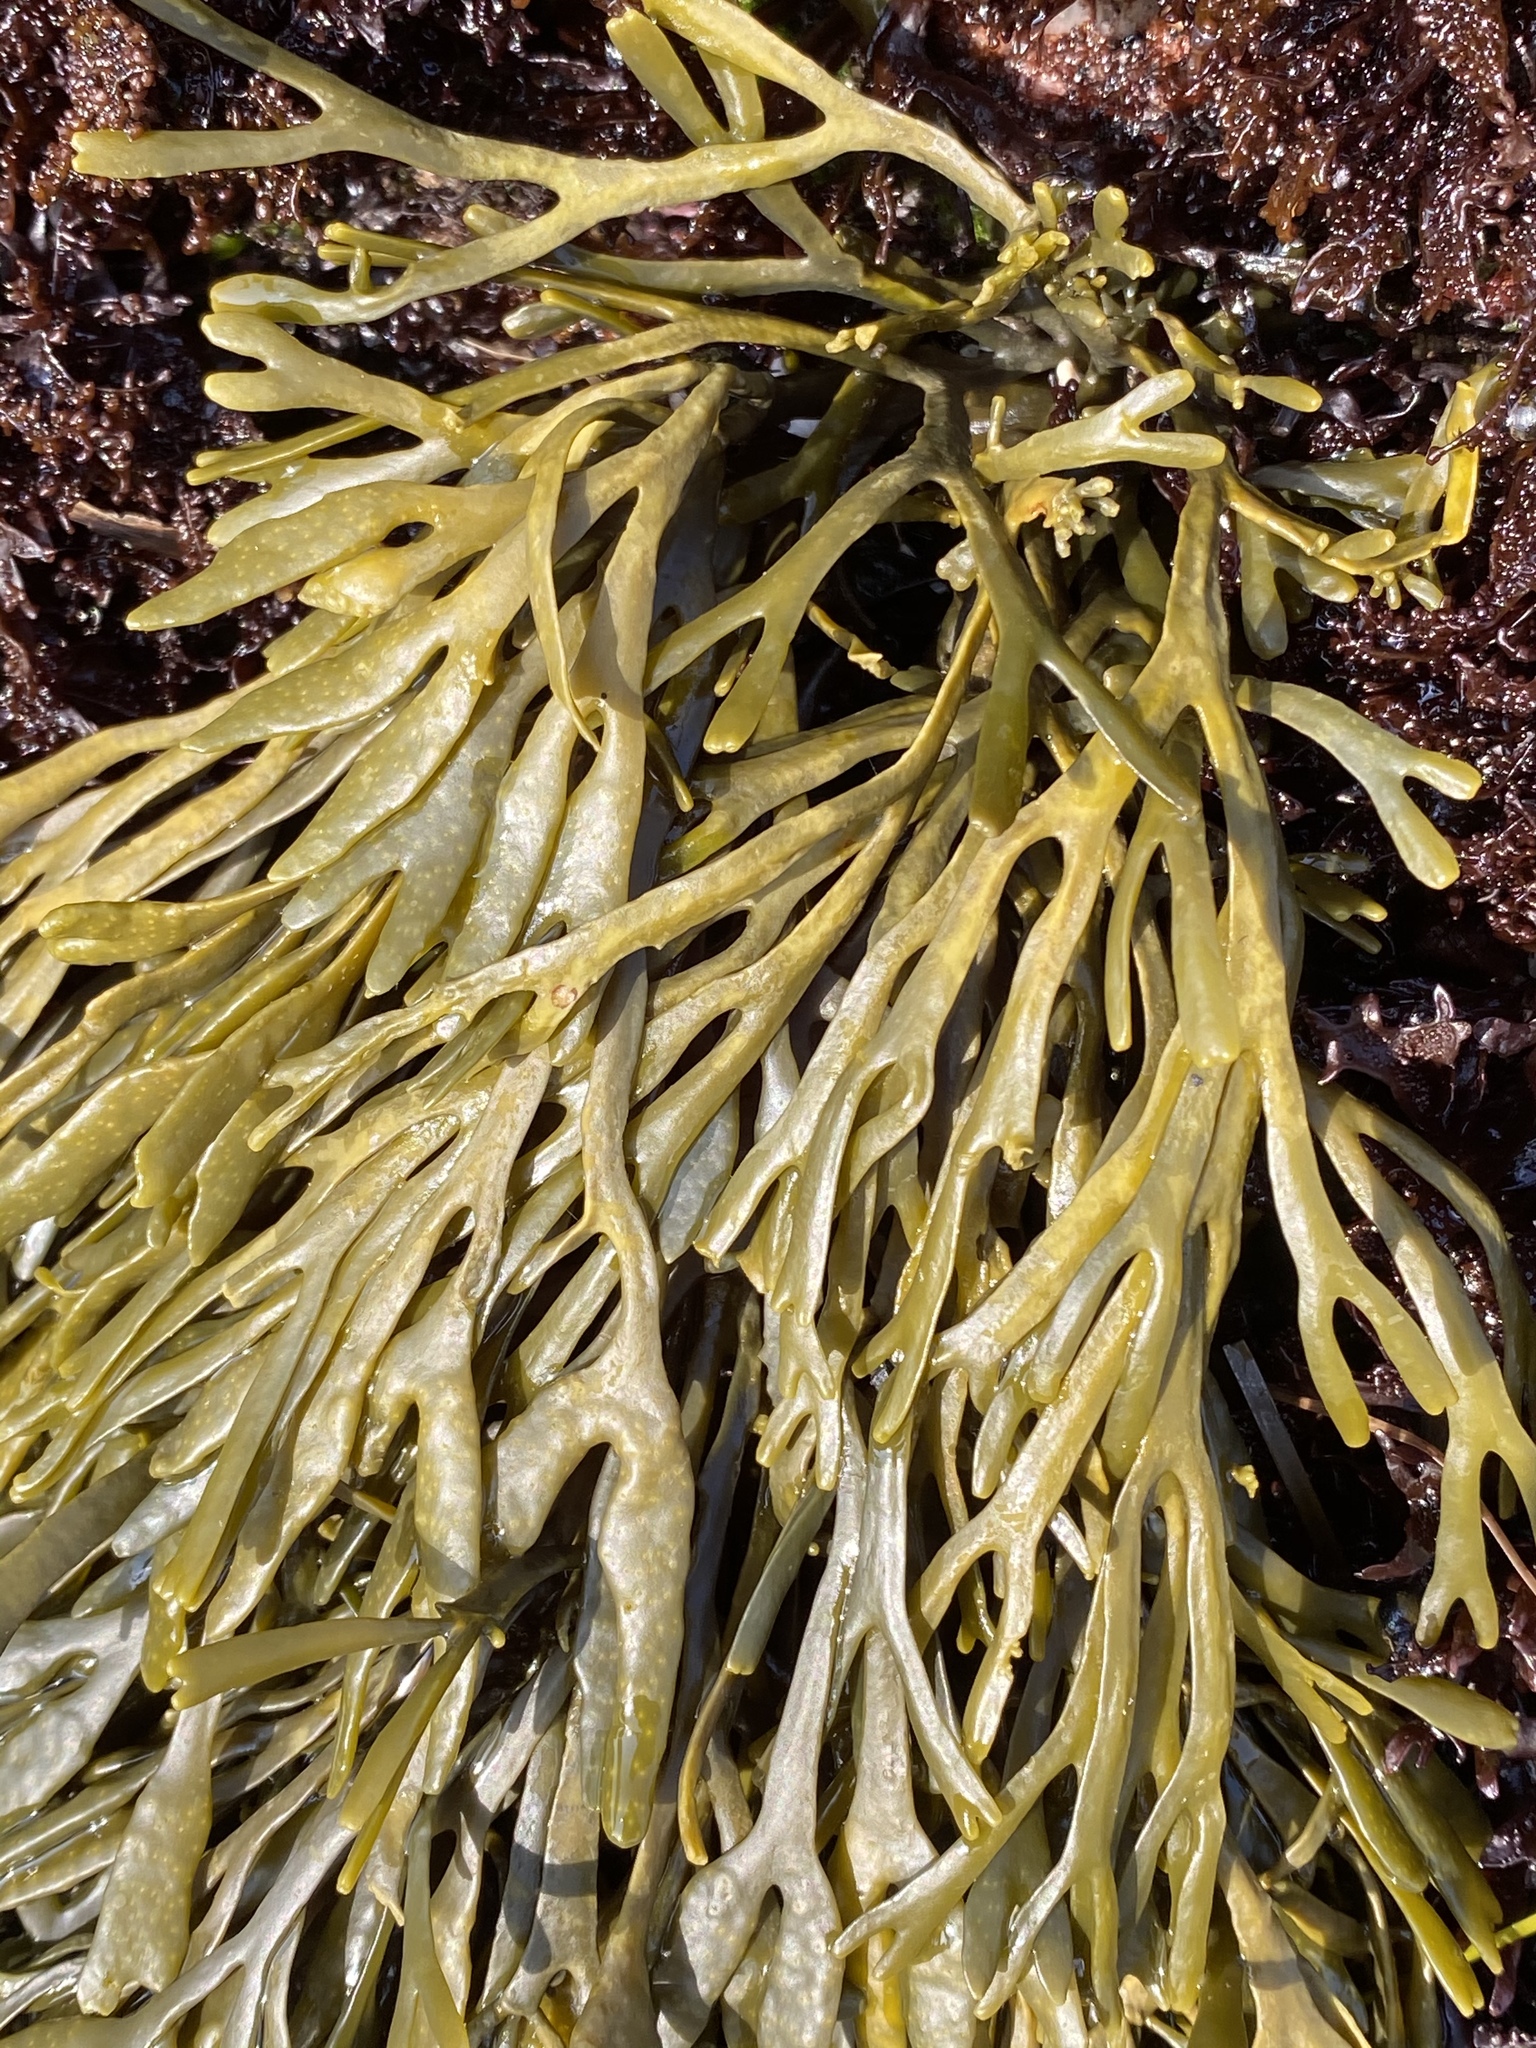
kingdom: Chromista
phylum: Ochrophyta
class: Phaeophyceae
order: Fucales
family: Fucaceae
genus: Silvetia
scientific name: Silvetia
